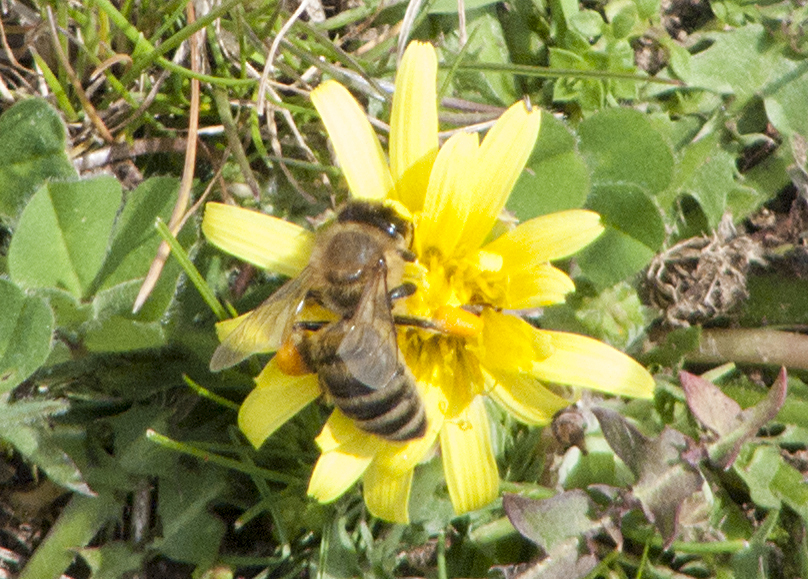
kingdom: Animalia
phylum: Arthropoda
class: Insecta
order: Hymenoptera
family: Apidae
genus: Apis
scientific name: Apis mellifera
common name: Honey bee
